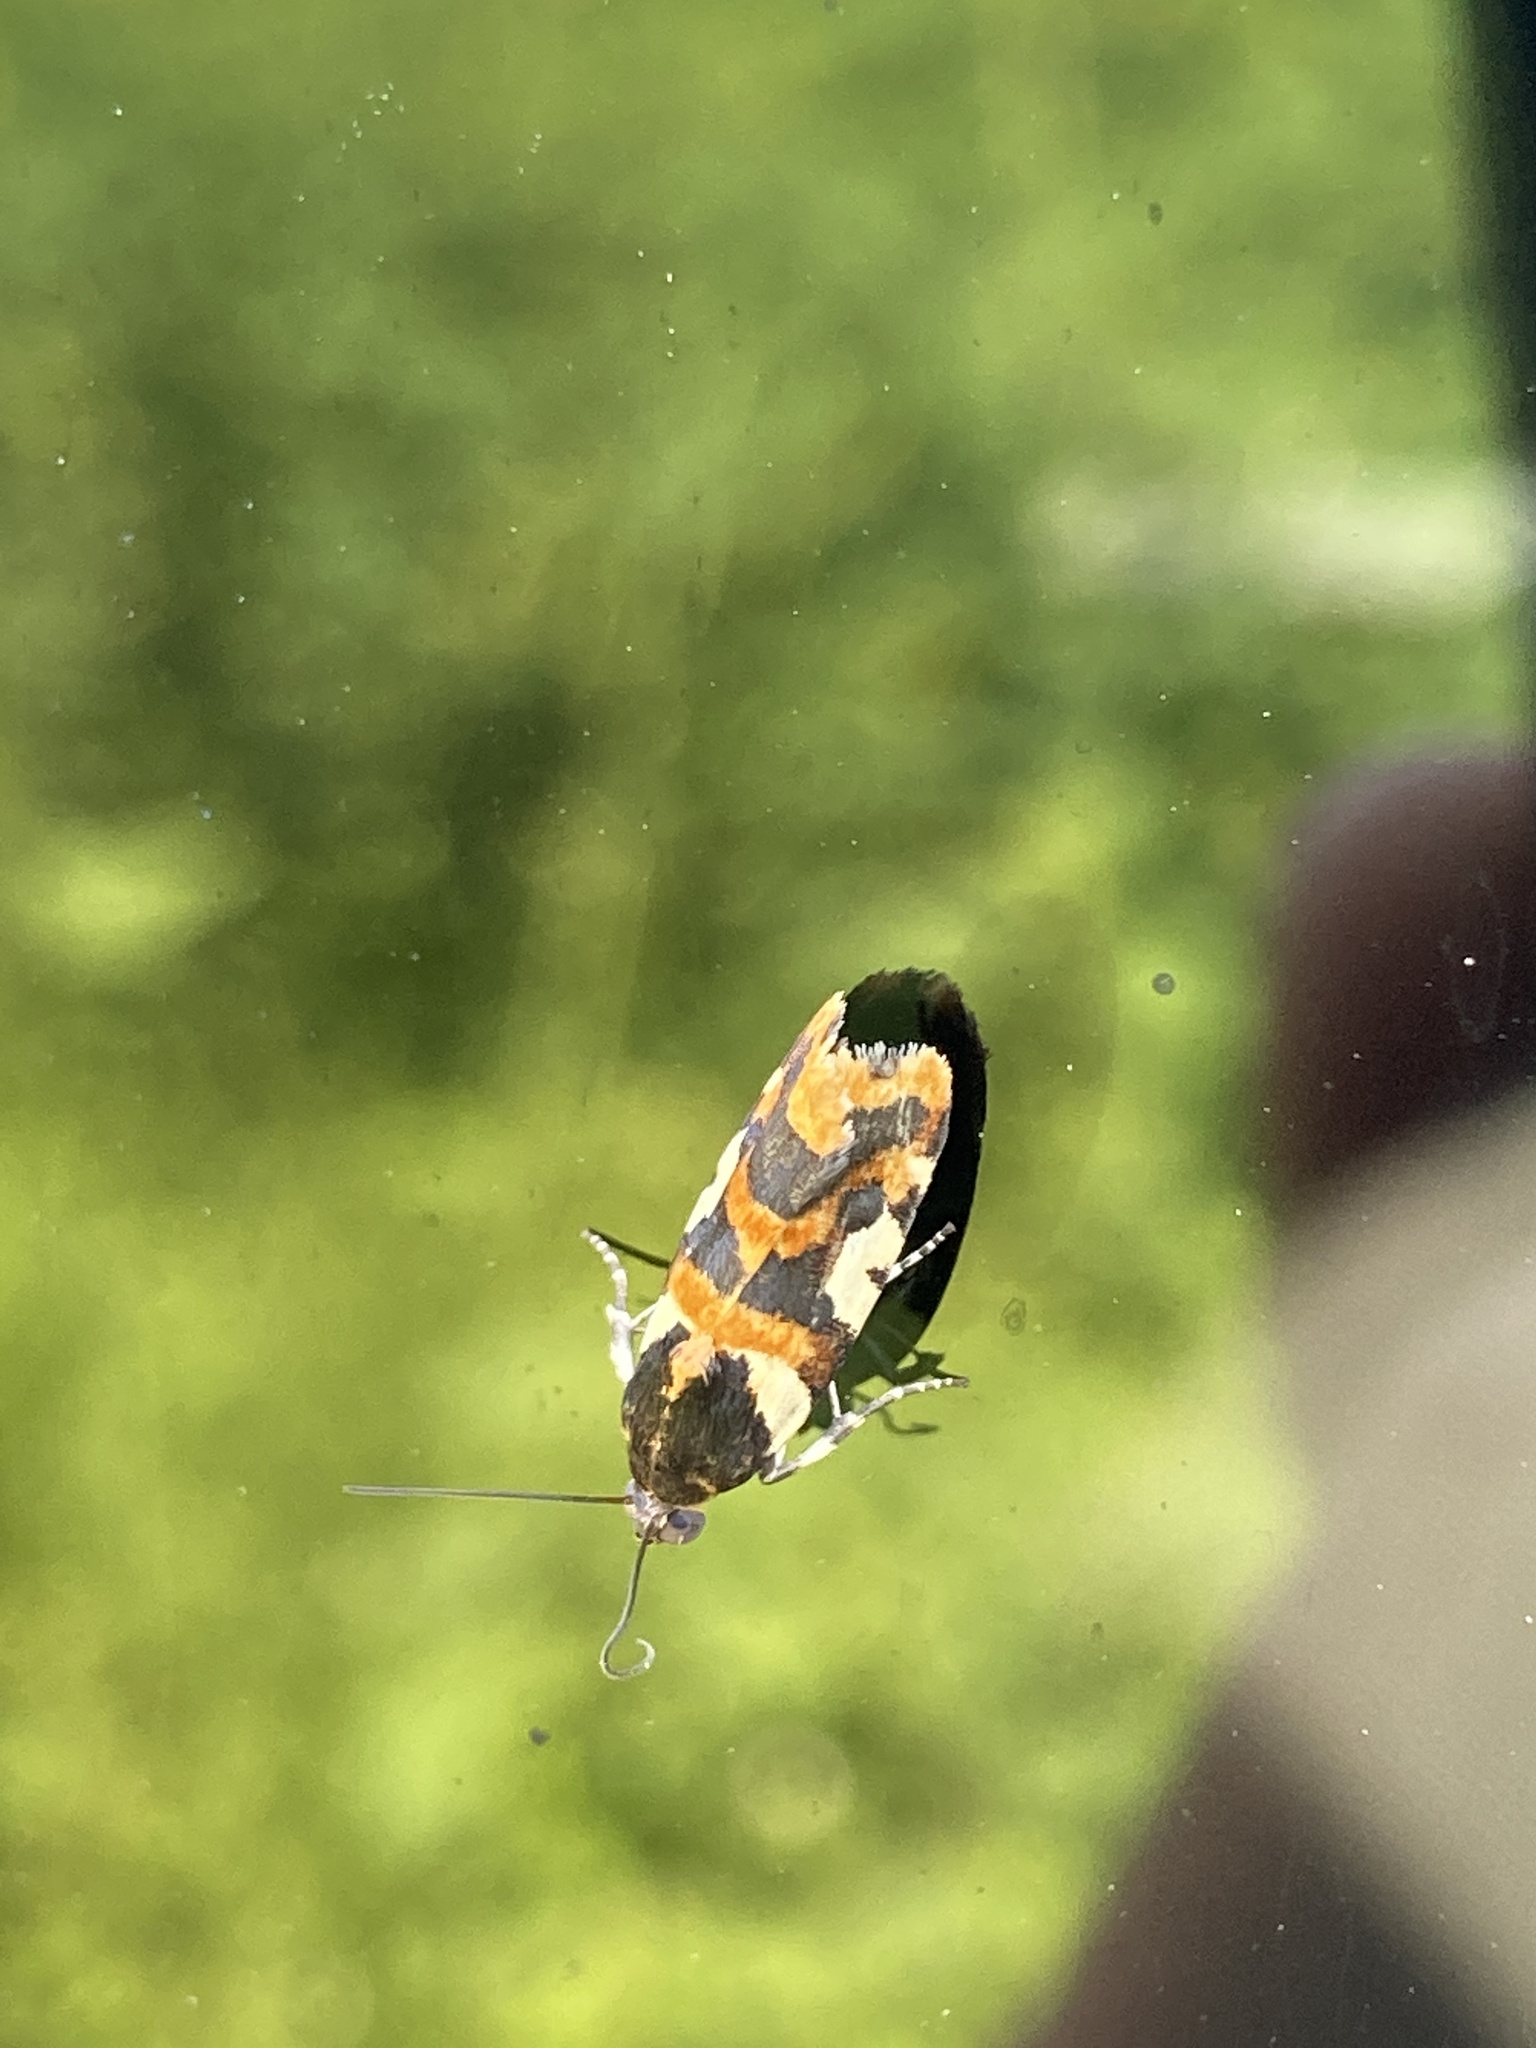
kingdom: Animalia
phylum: Arthropoda
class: Insecta
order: Lepidoptera
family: Noctuidae
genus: Acontia
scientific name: Acontia dama
